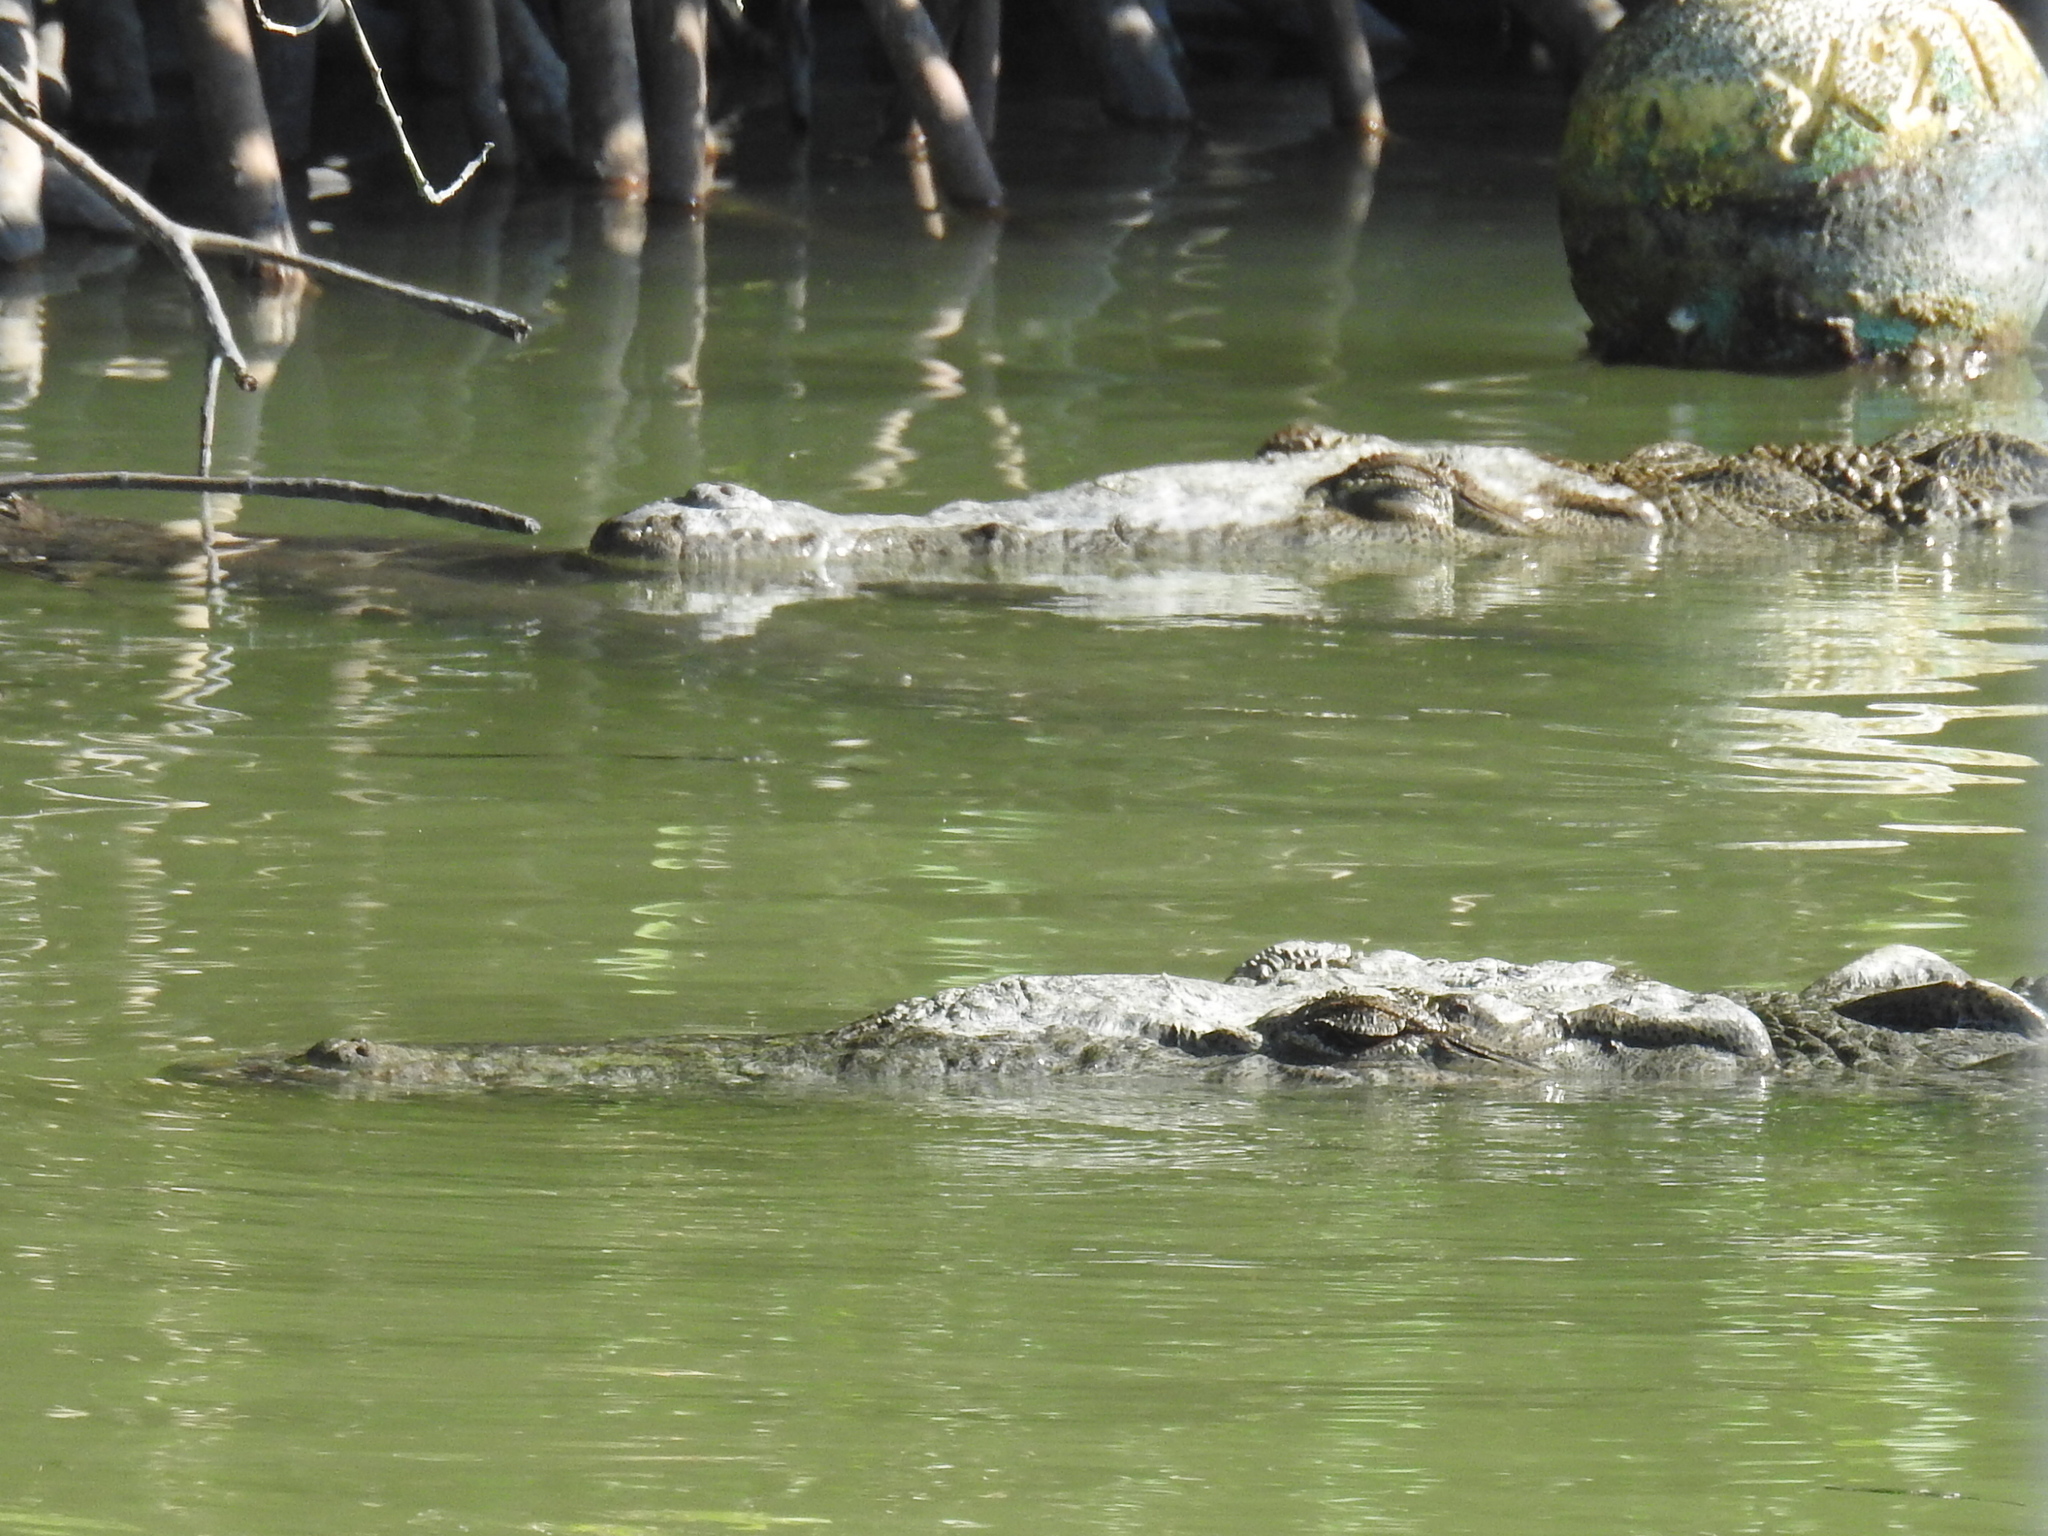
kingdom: Animalia
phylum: Chordata
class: Crocodylia
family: Crocodylidae
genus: Crocodylus
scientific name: Crocodylus acutus
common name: American crocodile
